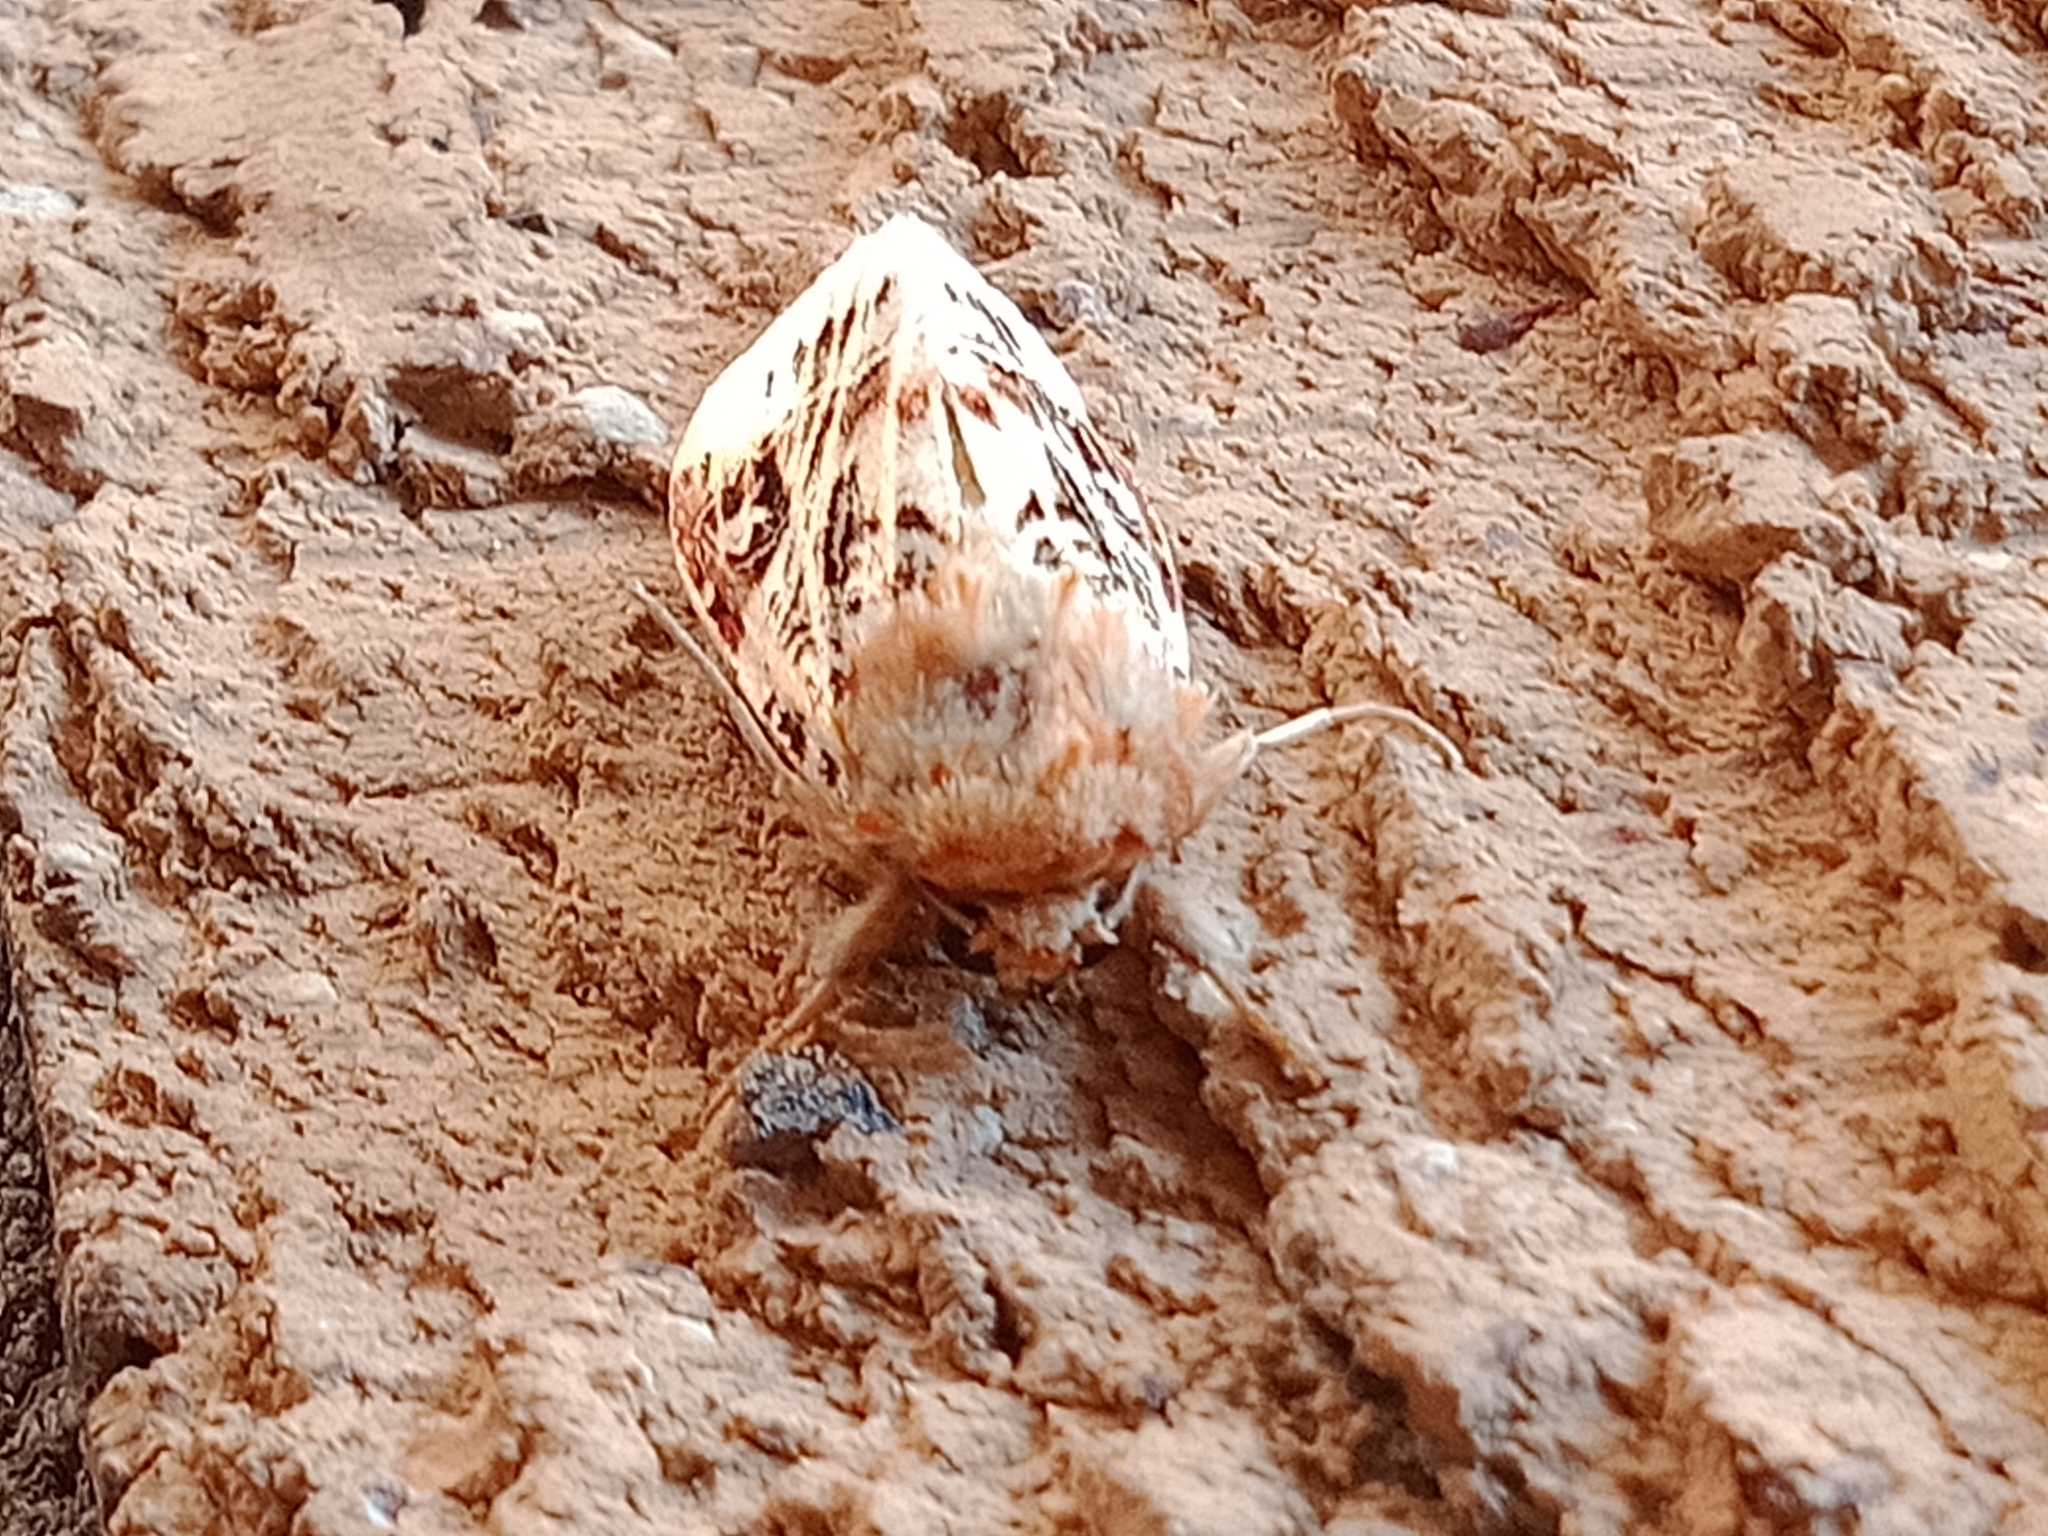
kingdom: Animalia
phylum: Arthropoda
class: Insecta
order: Lepidoptera
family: Noctuidae
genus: Spodoptera
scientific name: Spodoptera picta
